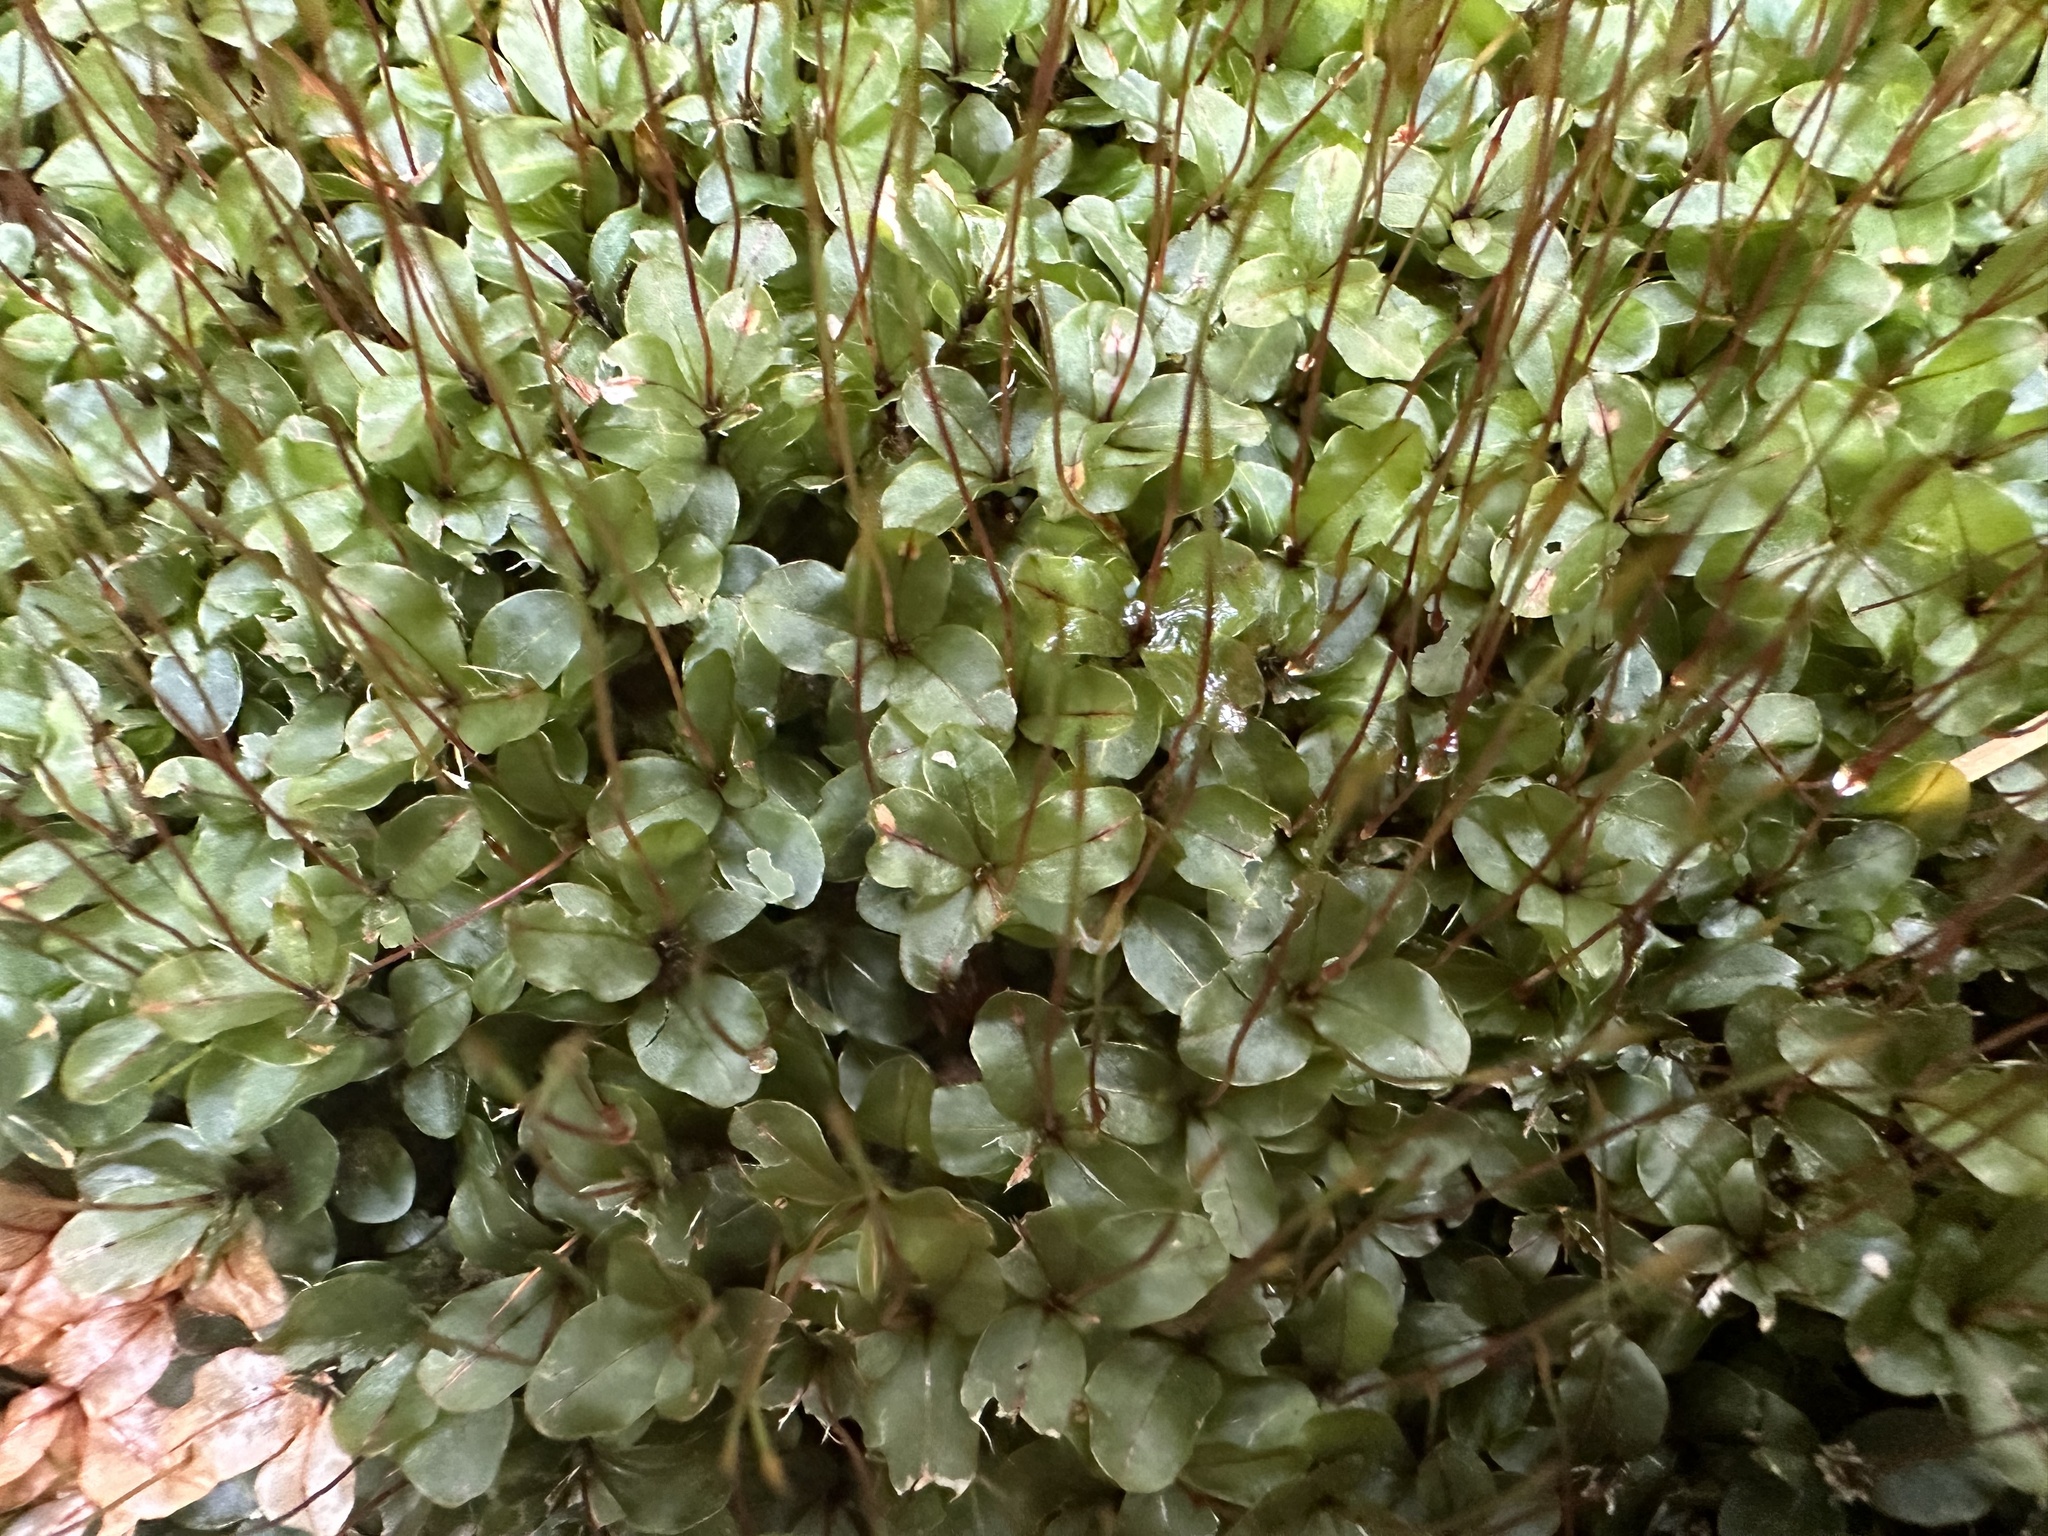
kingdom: Plantae
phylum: Bryophyta
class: Bryopsida
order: Bryales
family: Mniaceae
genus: Rhizomnium
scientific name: Rhizomnium punctatum
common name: Dotted leafy moss
